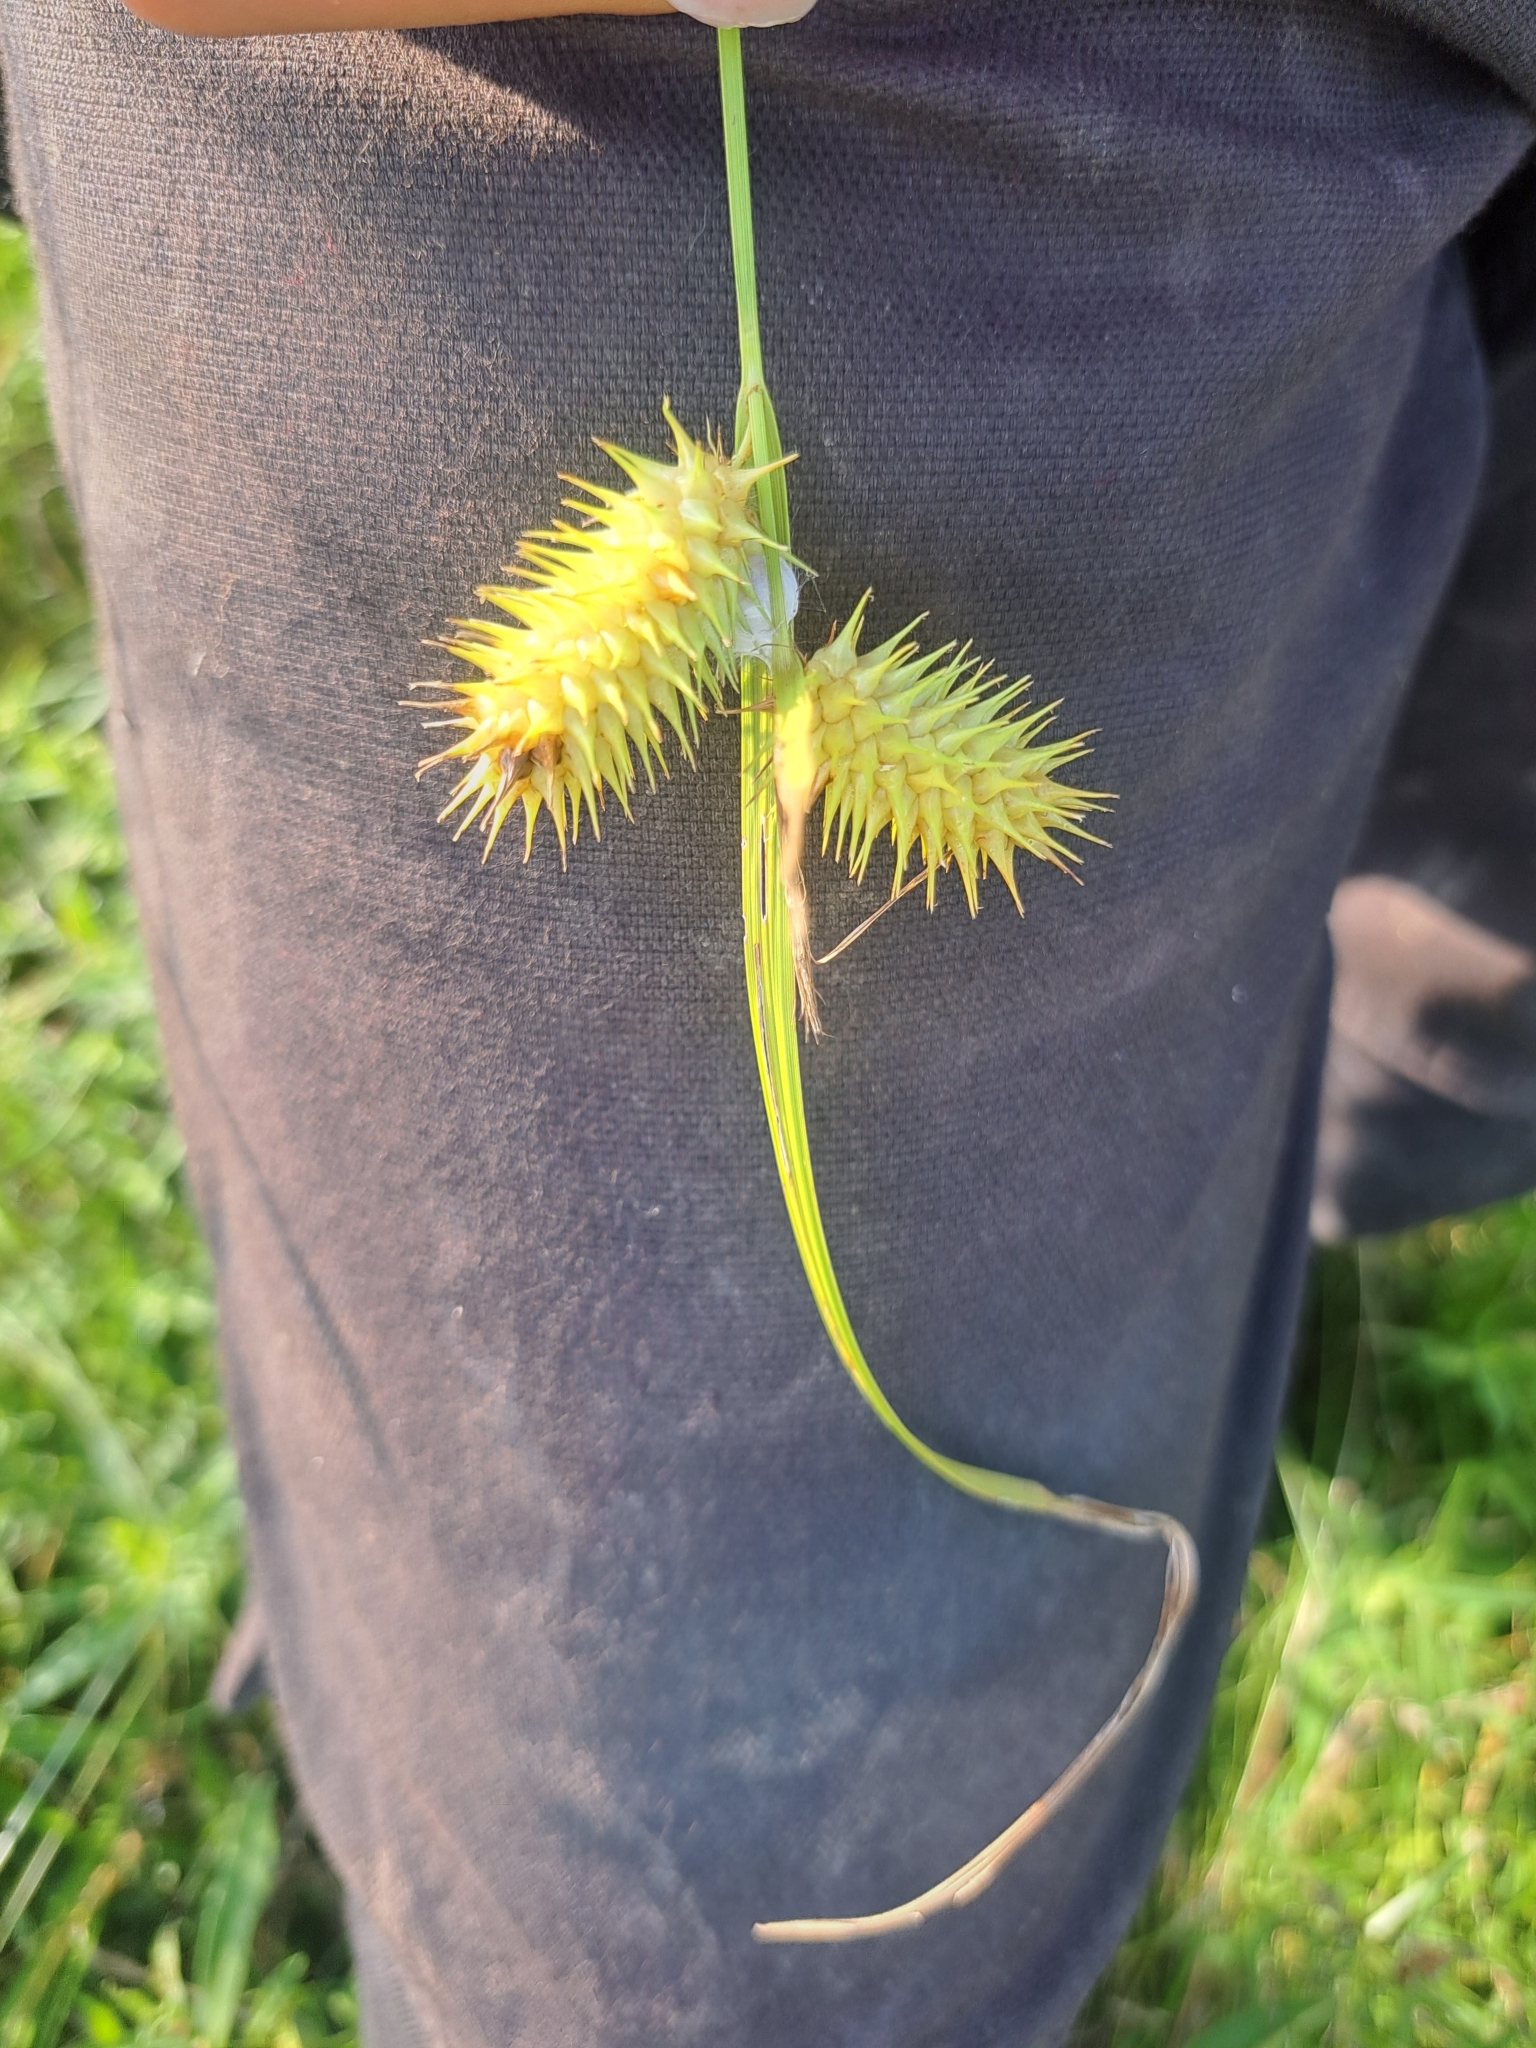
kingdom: Plantae
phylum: Tracheophyta
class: Liliopsida
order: Poales
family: Cyperaceae
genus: Carex
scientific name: Carex lurida
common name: Sallow sedge
